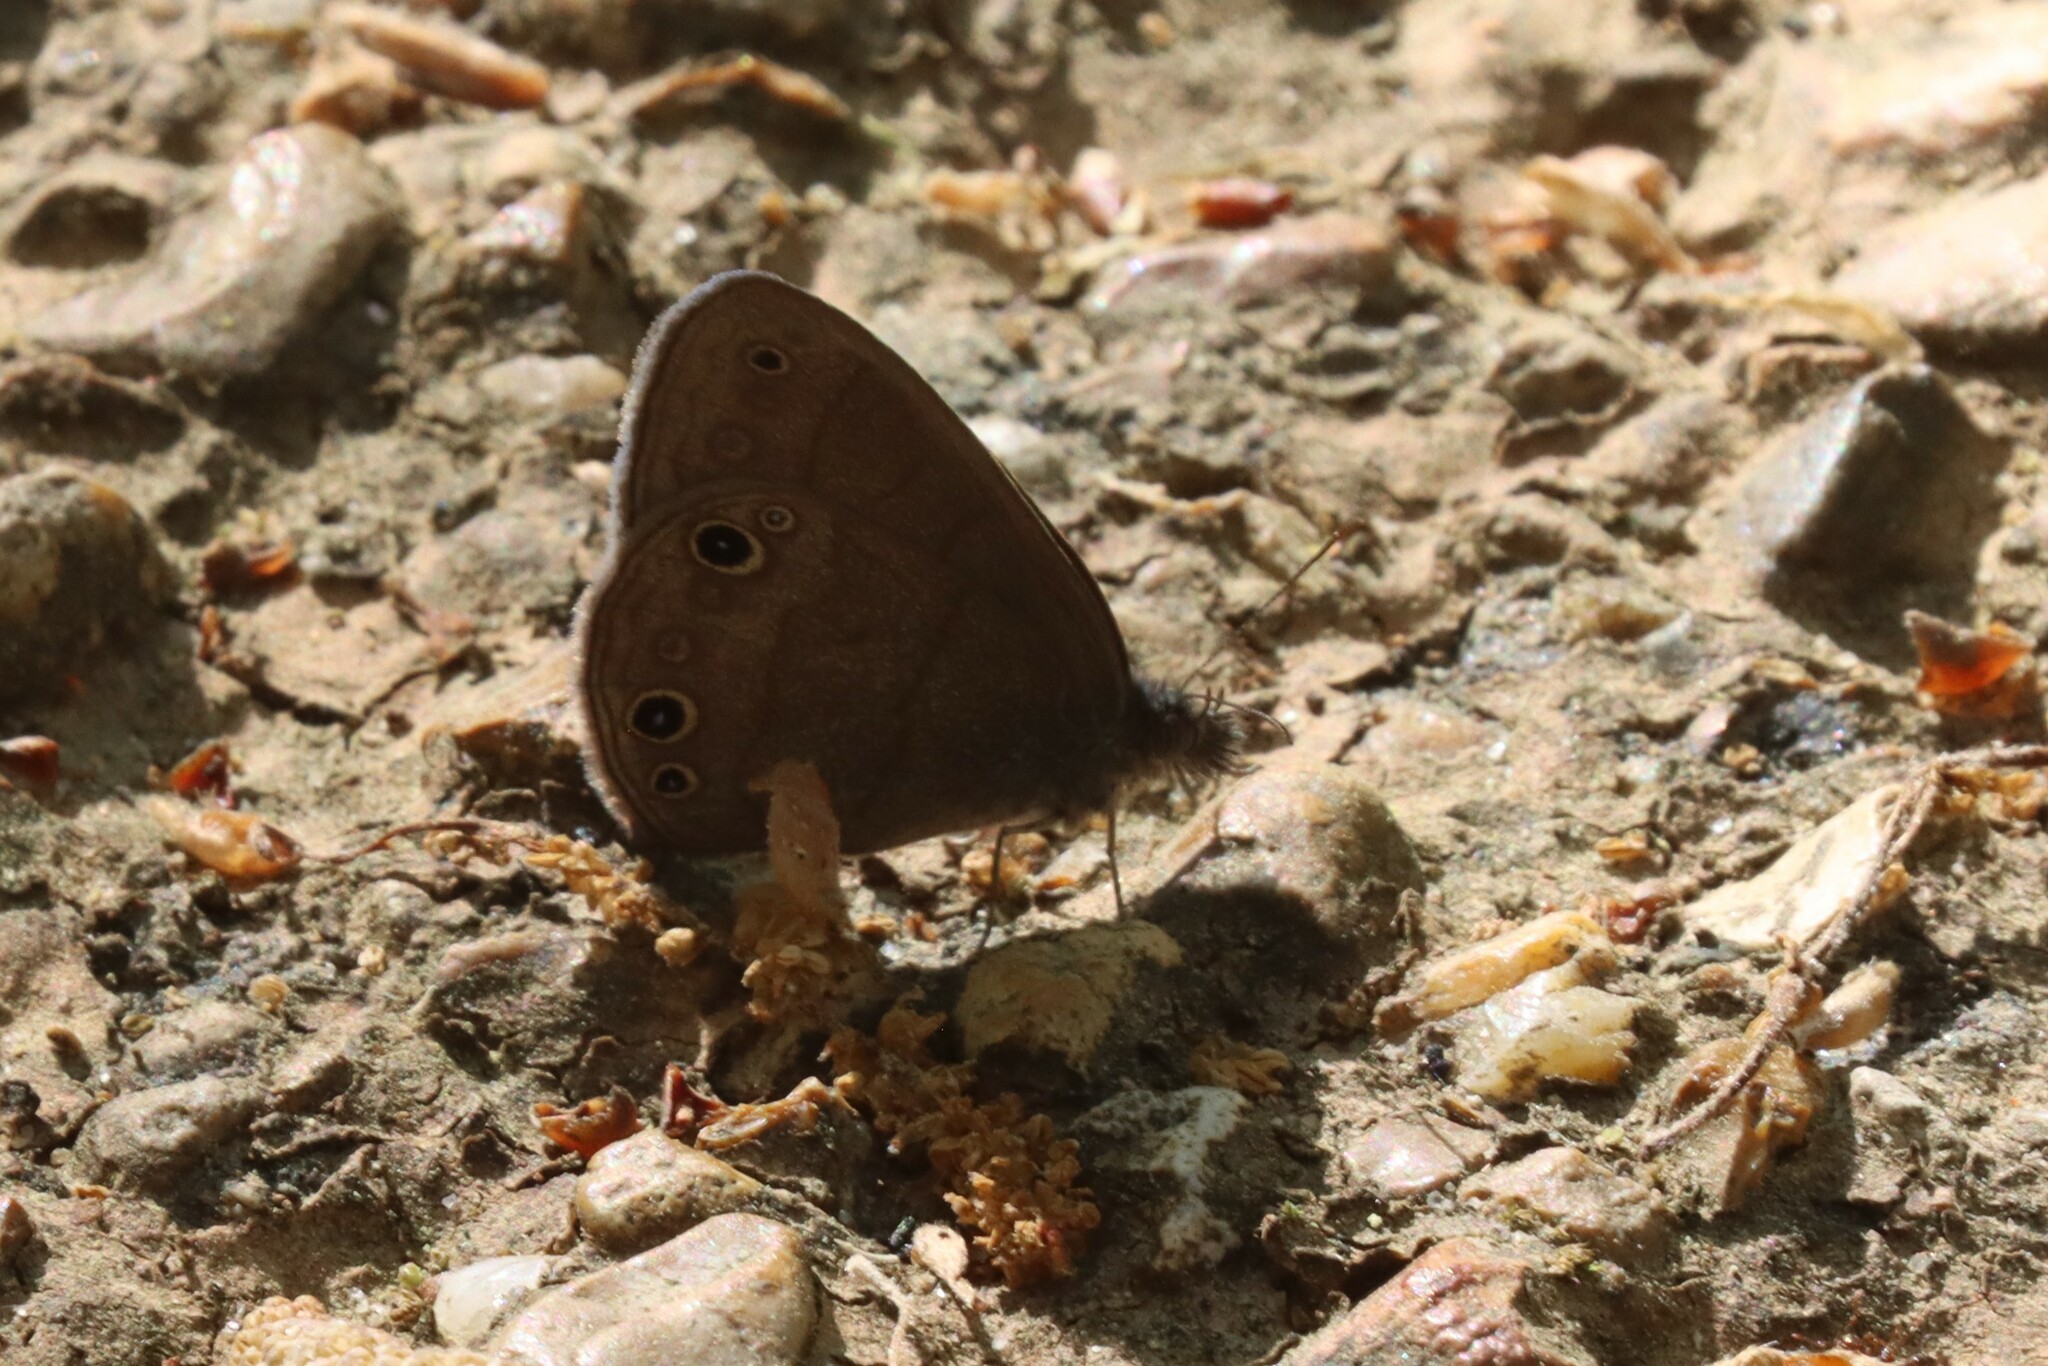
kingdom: Animalia
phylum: Arthropoda
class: Insecta
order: Lepidoptera
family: Nymphalidae
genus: Hermeuptychia
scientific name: Hermeuptychia hermes
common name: Hermes satyr
